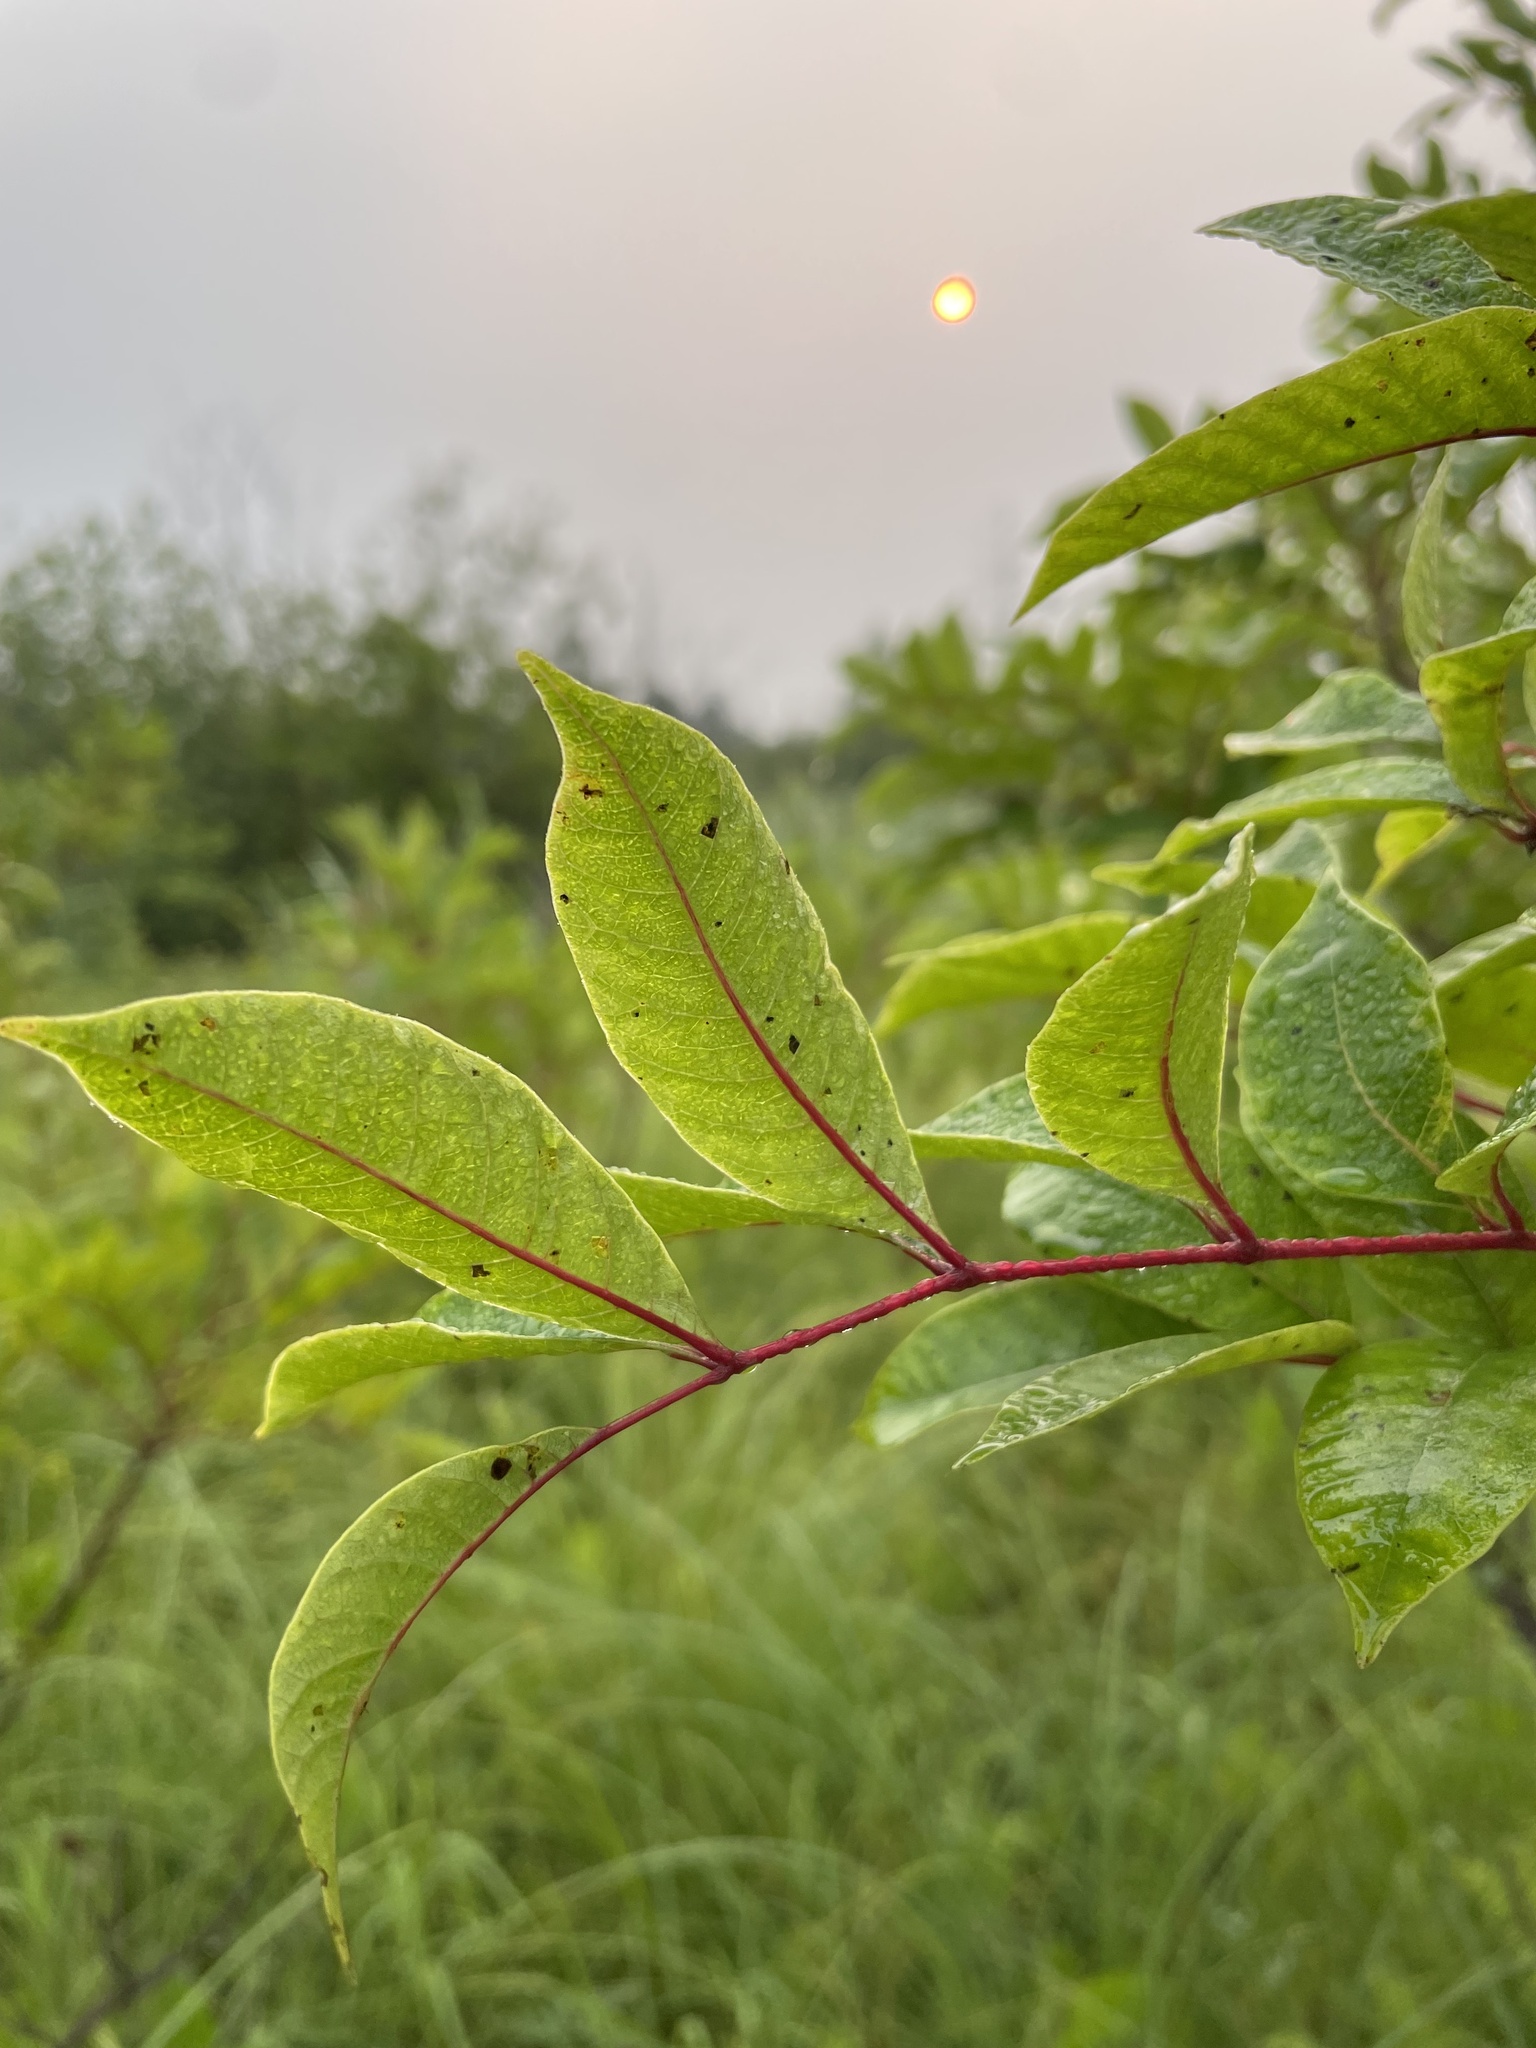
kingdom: Plantae
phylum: Tracheophyta
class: Magnoliopsida
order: Sapindales
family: Anacardiaceae
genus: Toxicodendron
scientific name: Toxicodendron vernix
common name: Poison sumac
